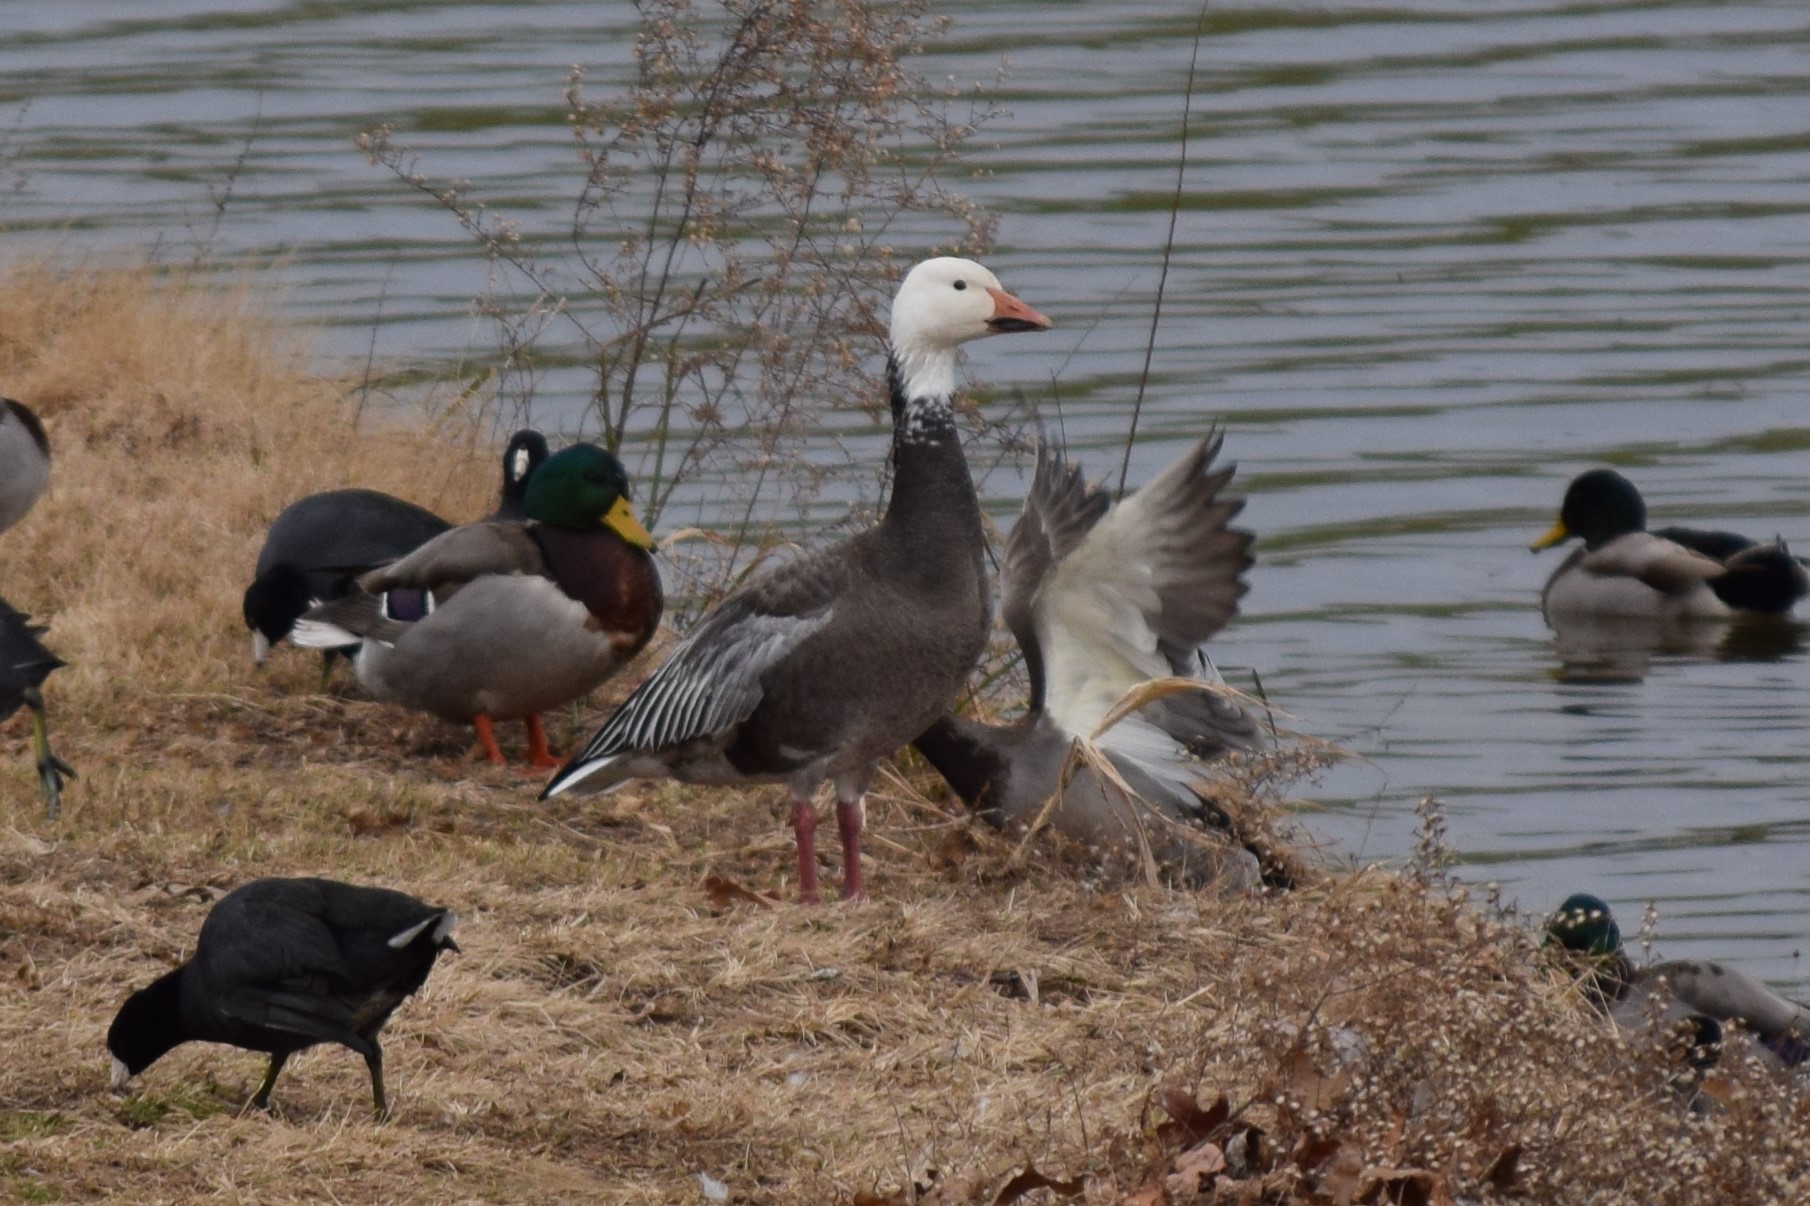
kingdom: Animalia
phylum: Chordata
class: Aves
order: Anseriformes
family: Anatidae
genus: Anser
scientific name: Anser caerulescens
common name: Snow goose
